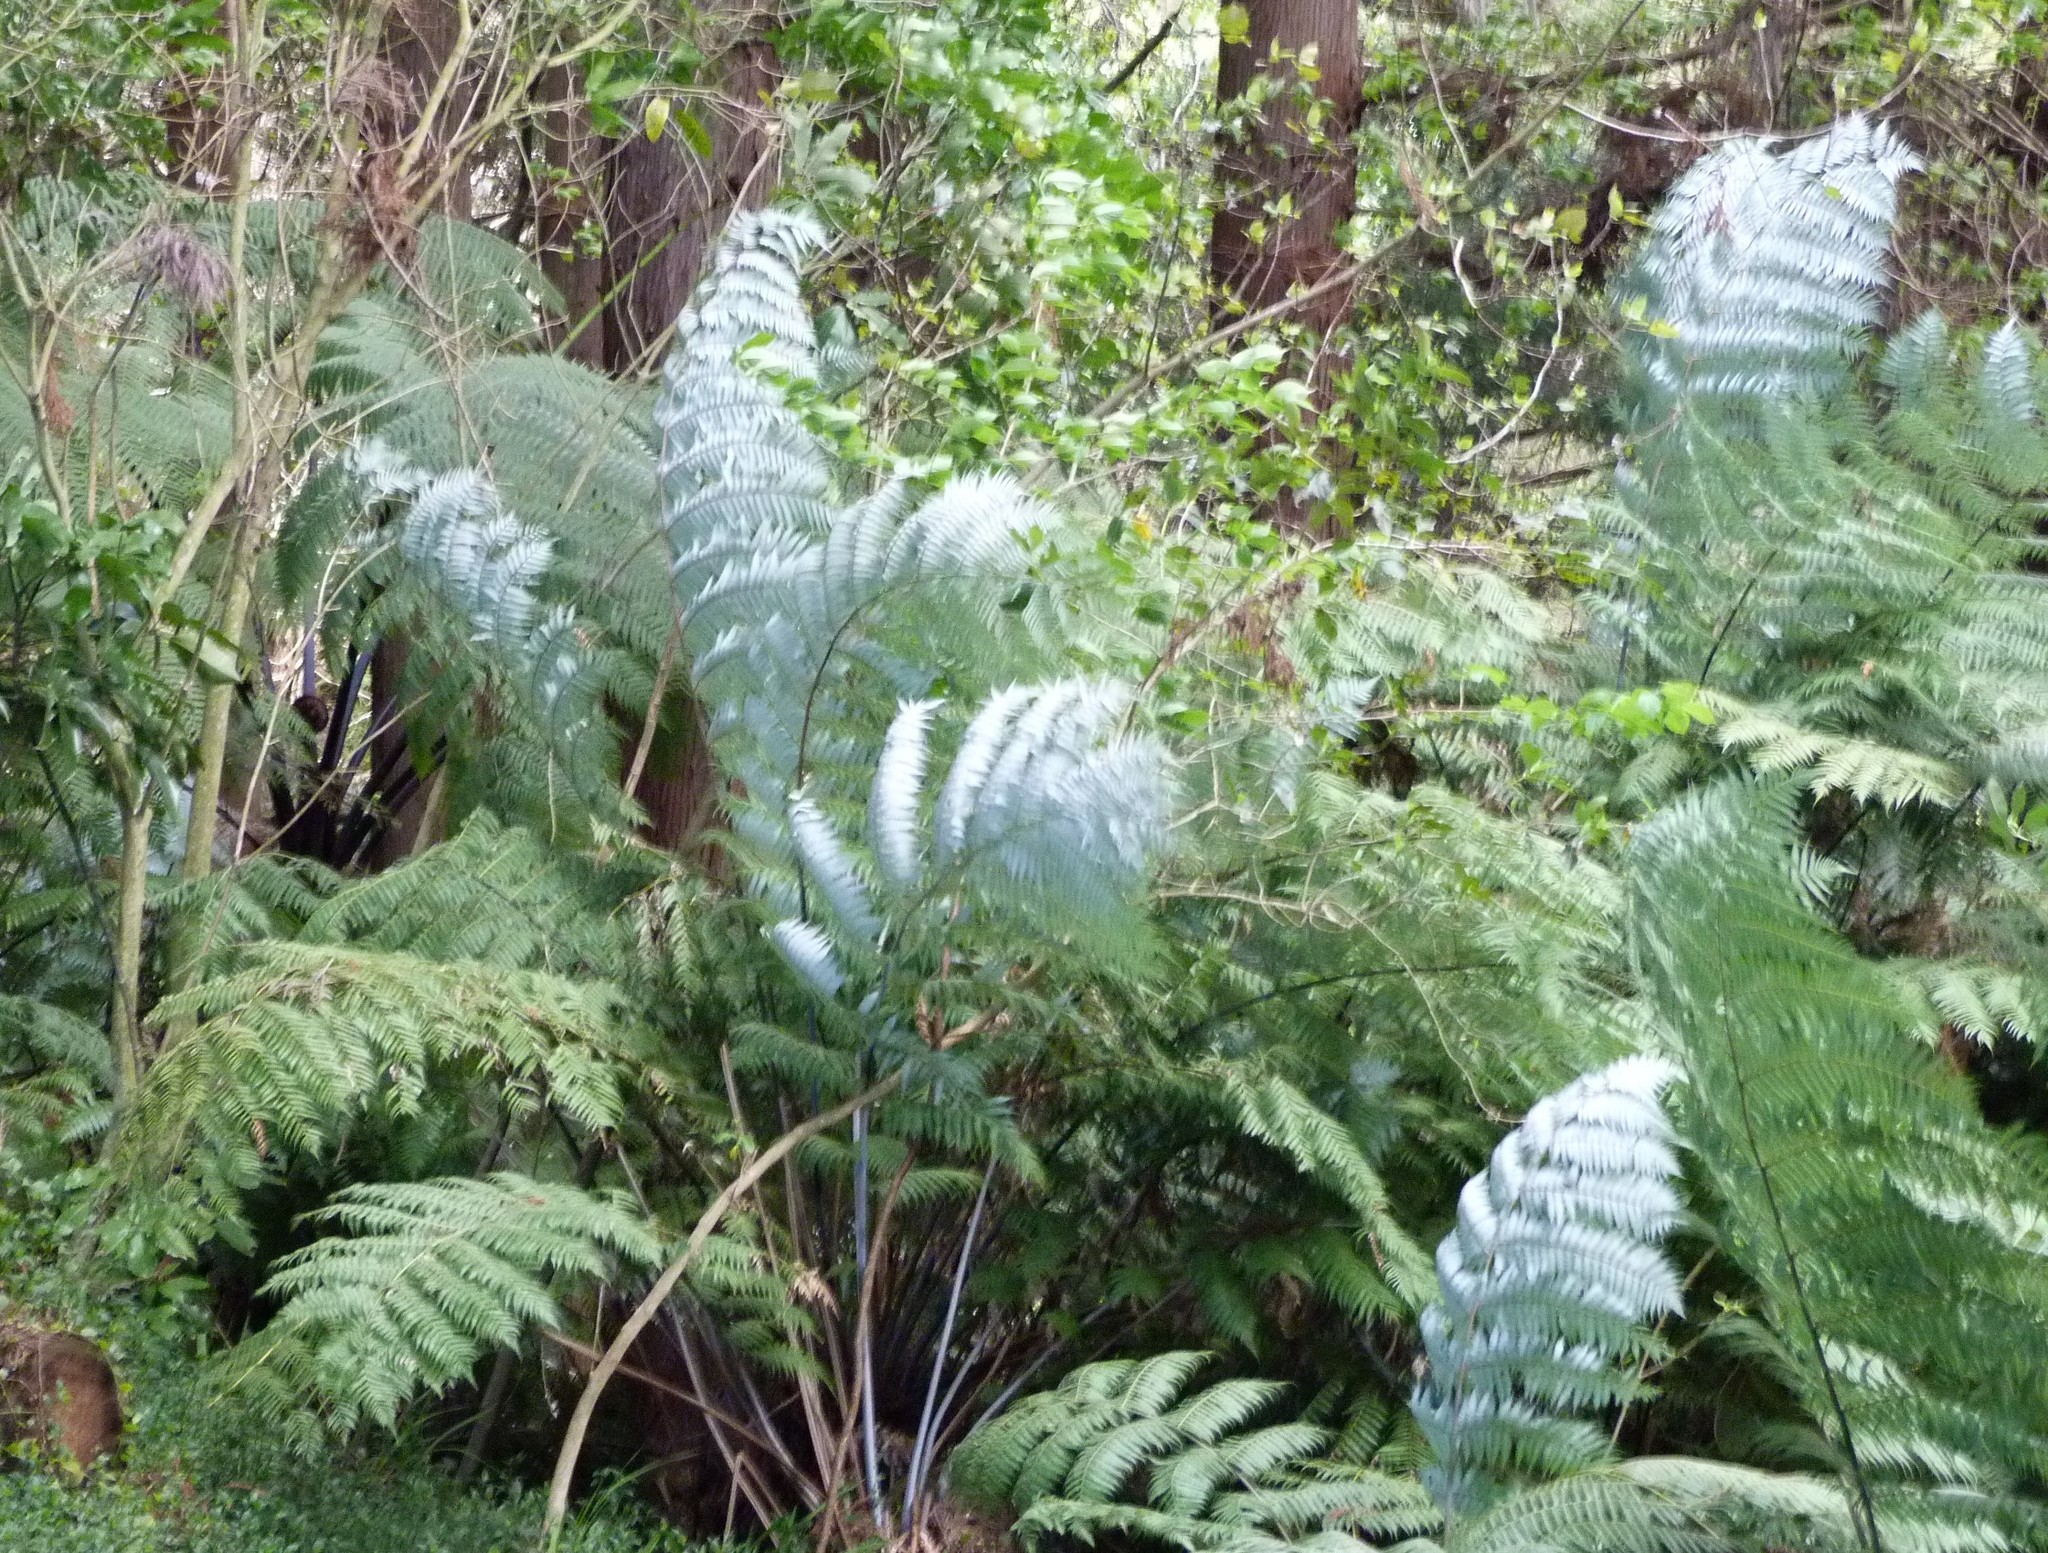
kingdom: Plantae
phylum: Tracheophyta
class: Polypodiopsida
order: Cyatheales
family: Cyatheaceae
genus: Alsophila
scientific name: Alsophila dealbata
